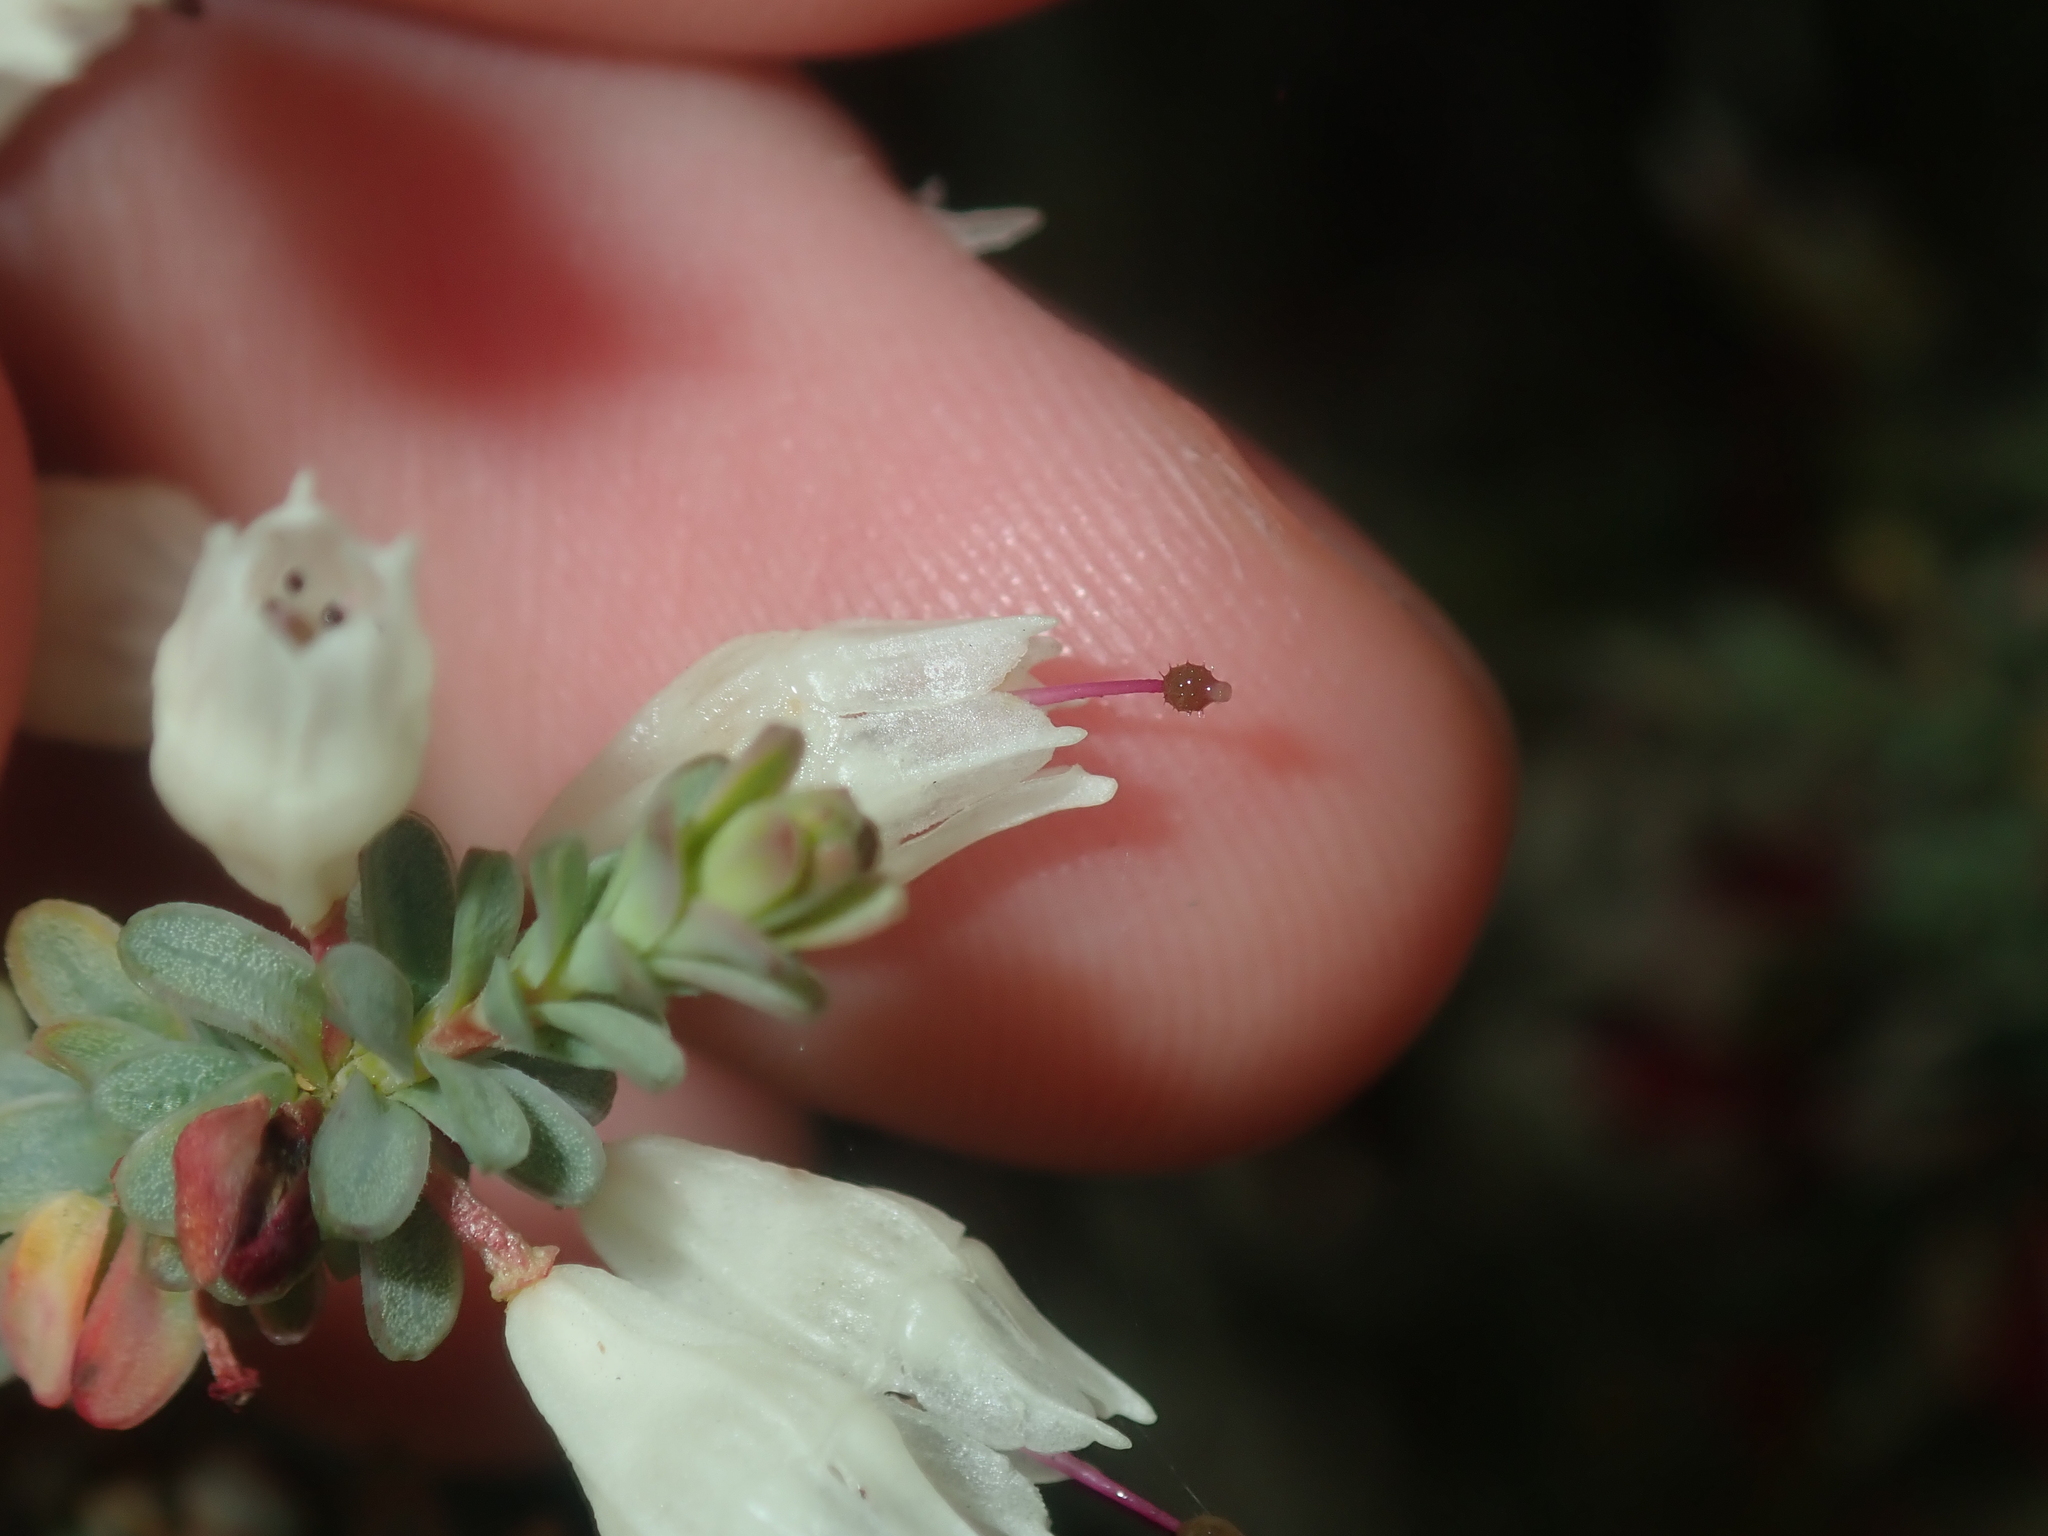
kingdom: Plantae
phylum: Tracheophyta
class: Magnoliopsida
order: Myrtales
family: Myrtaceae
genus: Darwinia
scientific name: Darwinia pauciflora
